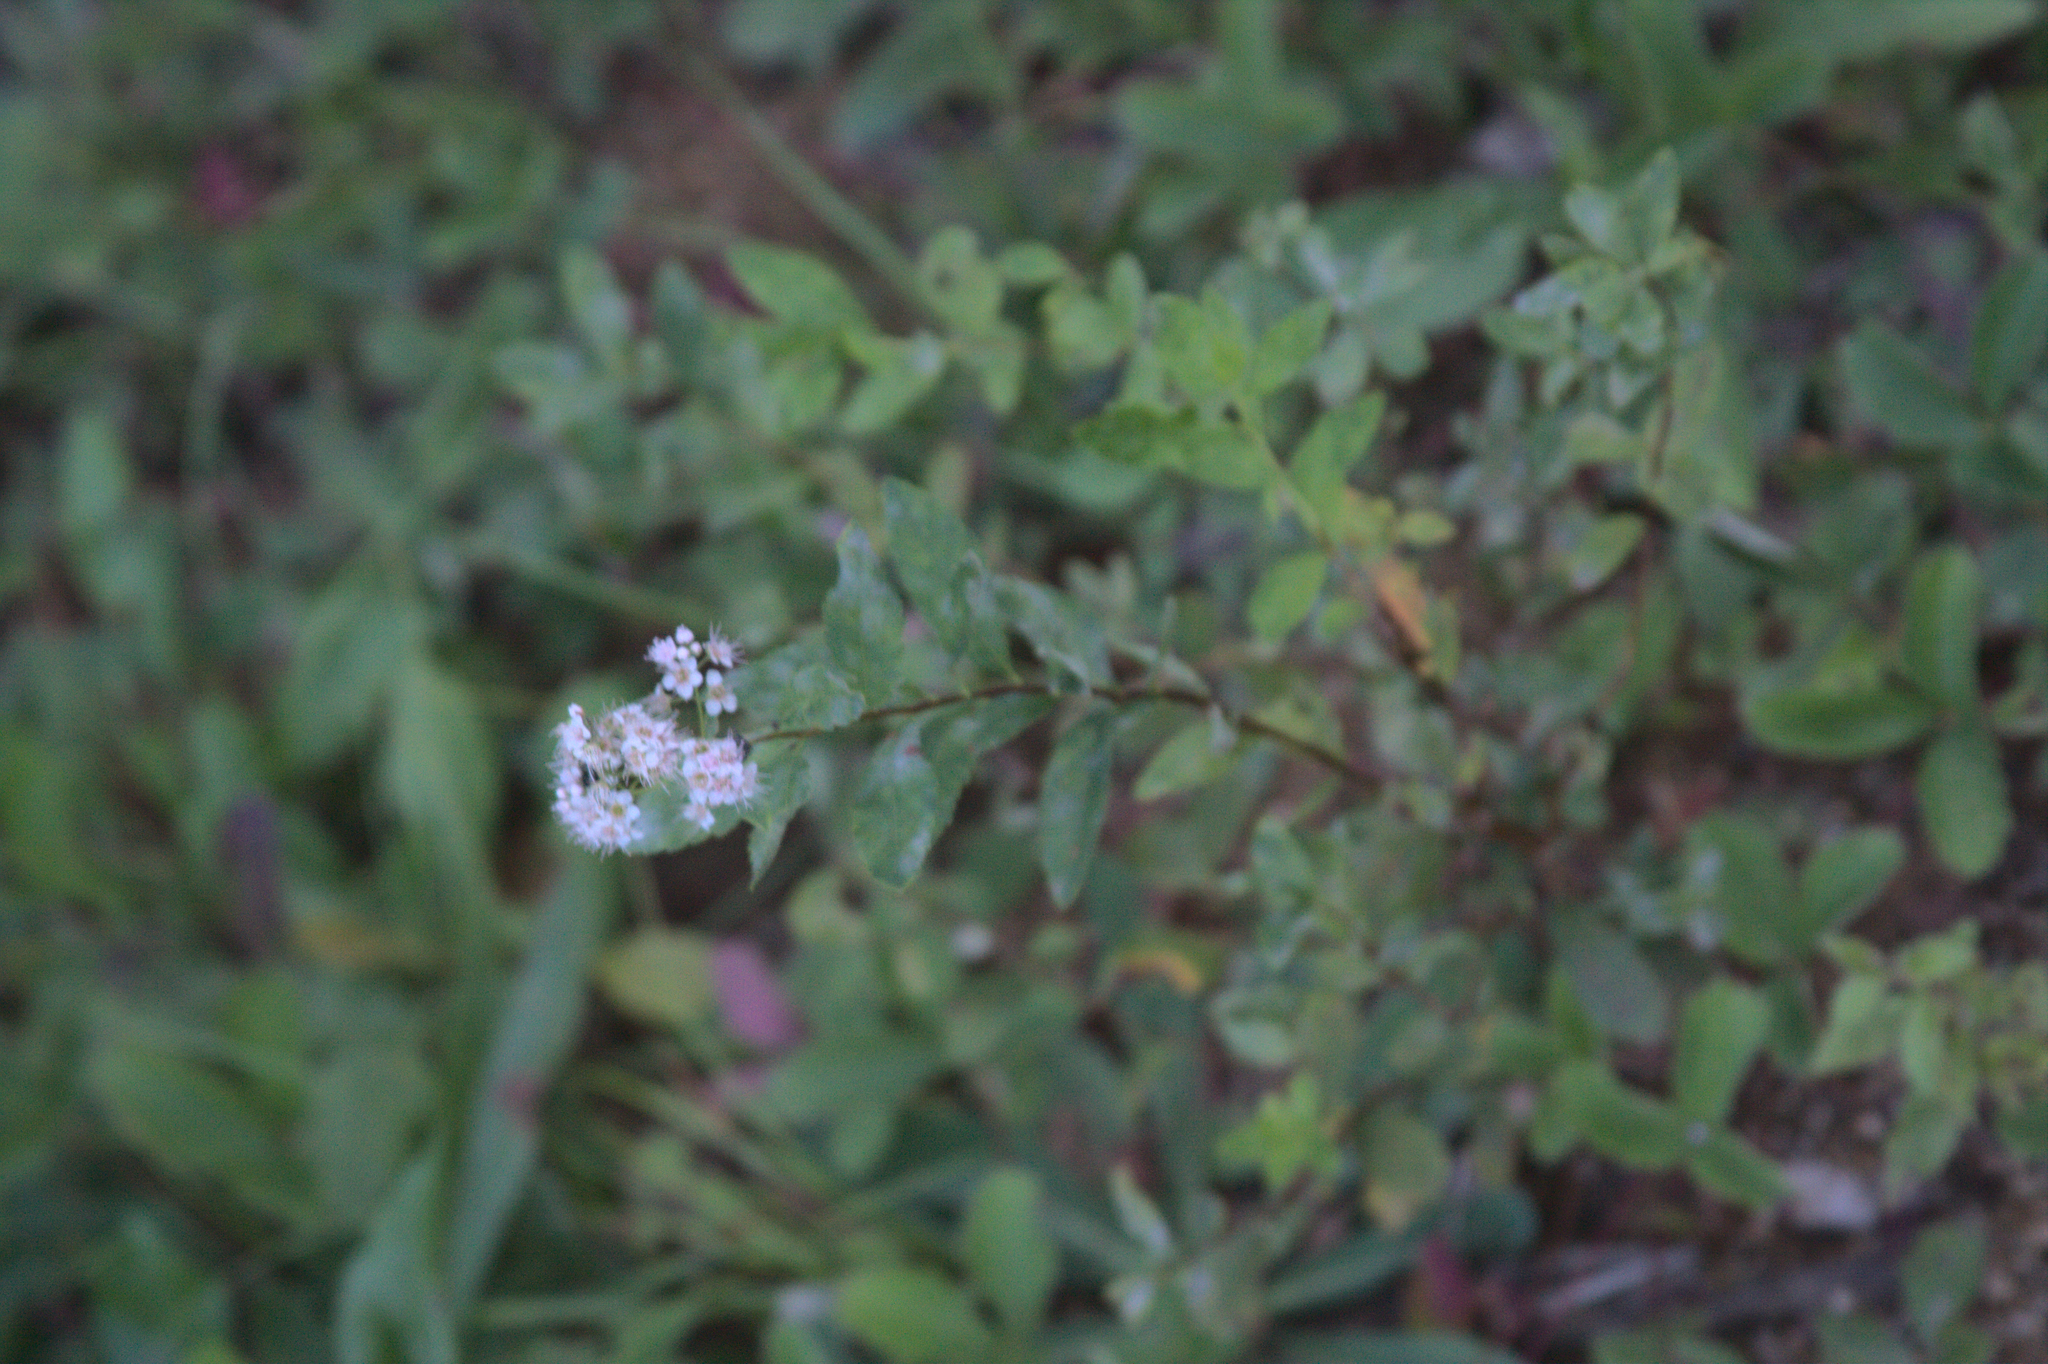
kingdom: Plantae
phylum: Tracheophyta
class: Magnoliopsida
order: Rosales
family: Rosaceae
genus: Spiraea
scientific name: Spiraea alba
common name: Pale bridewort
